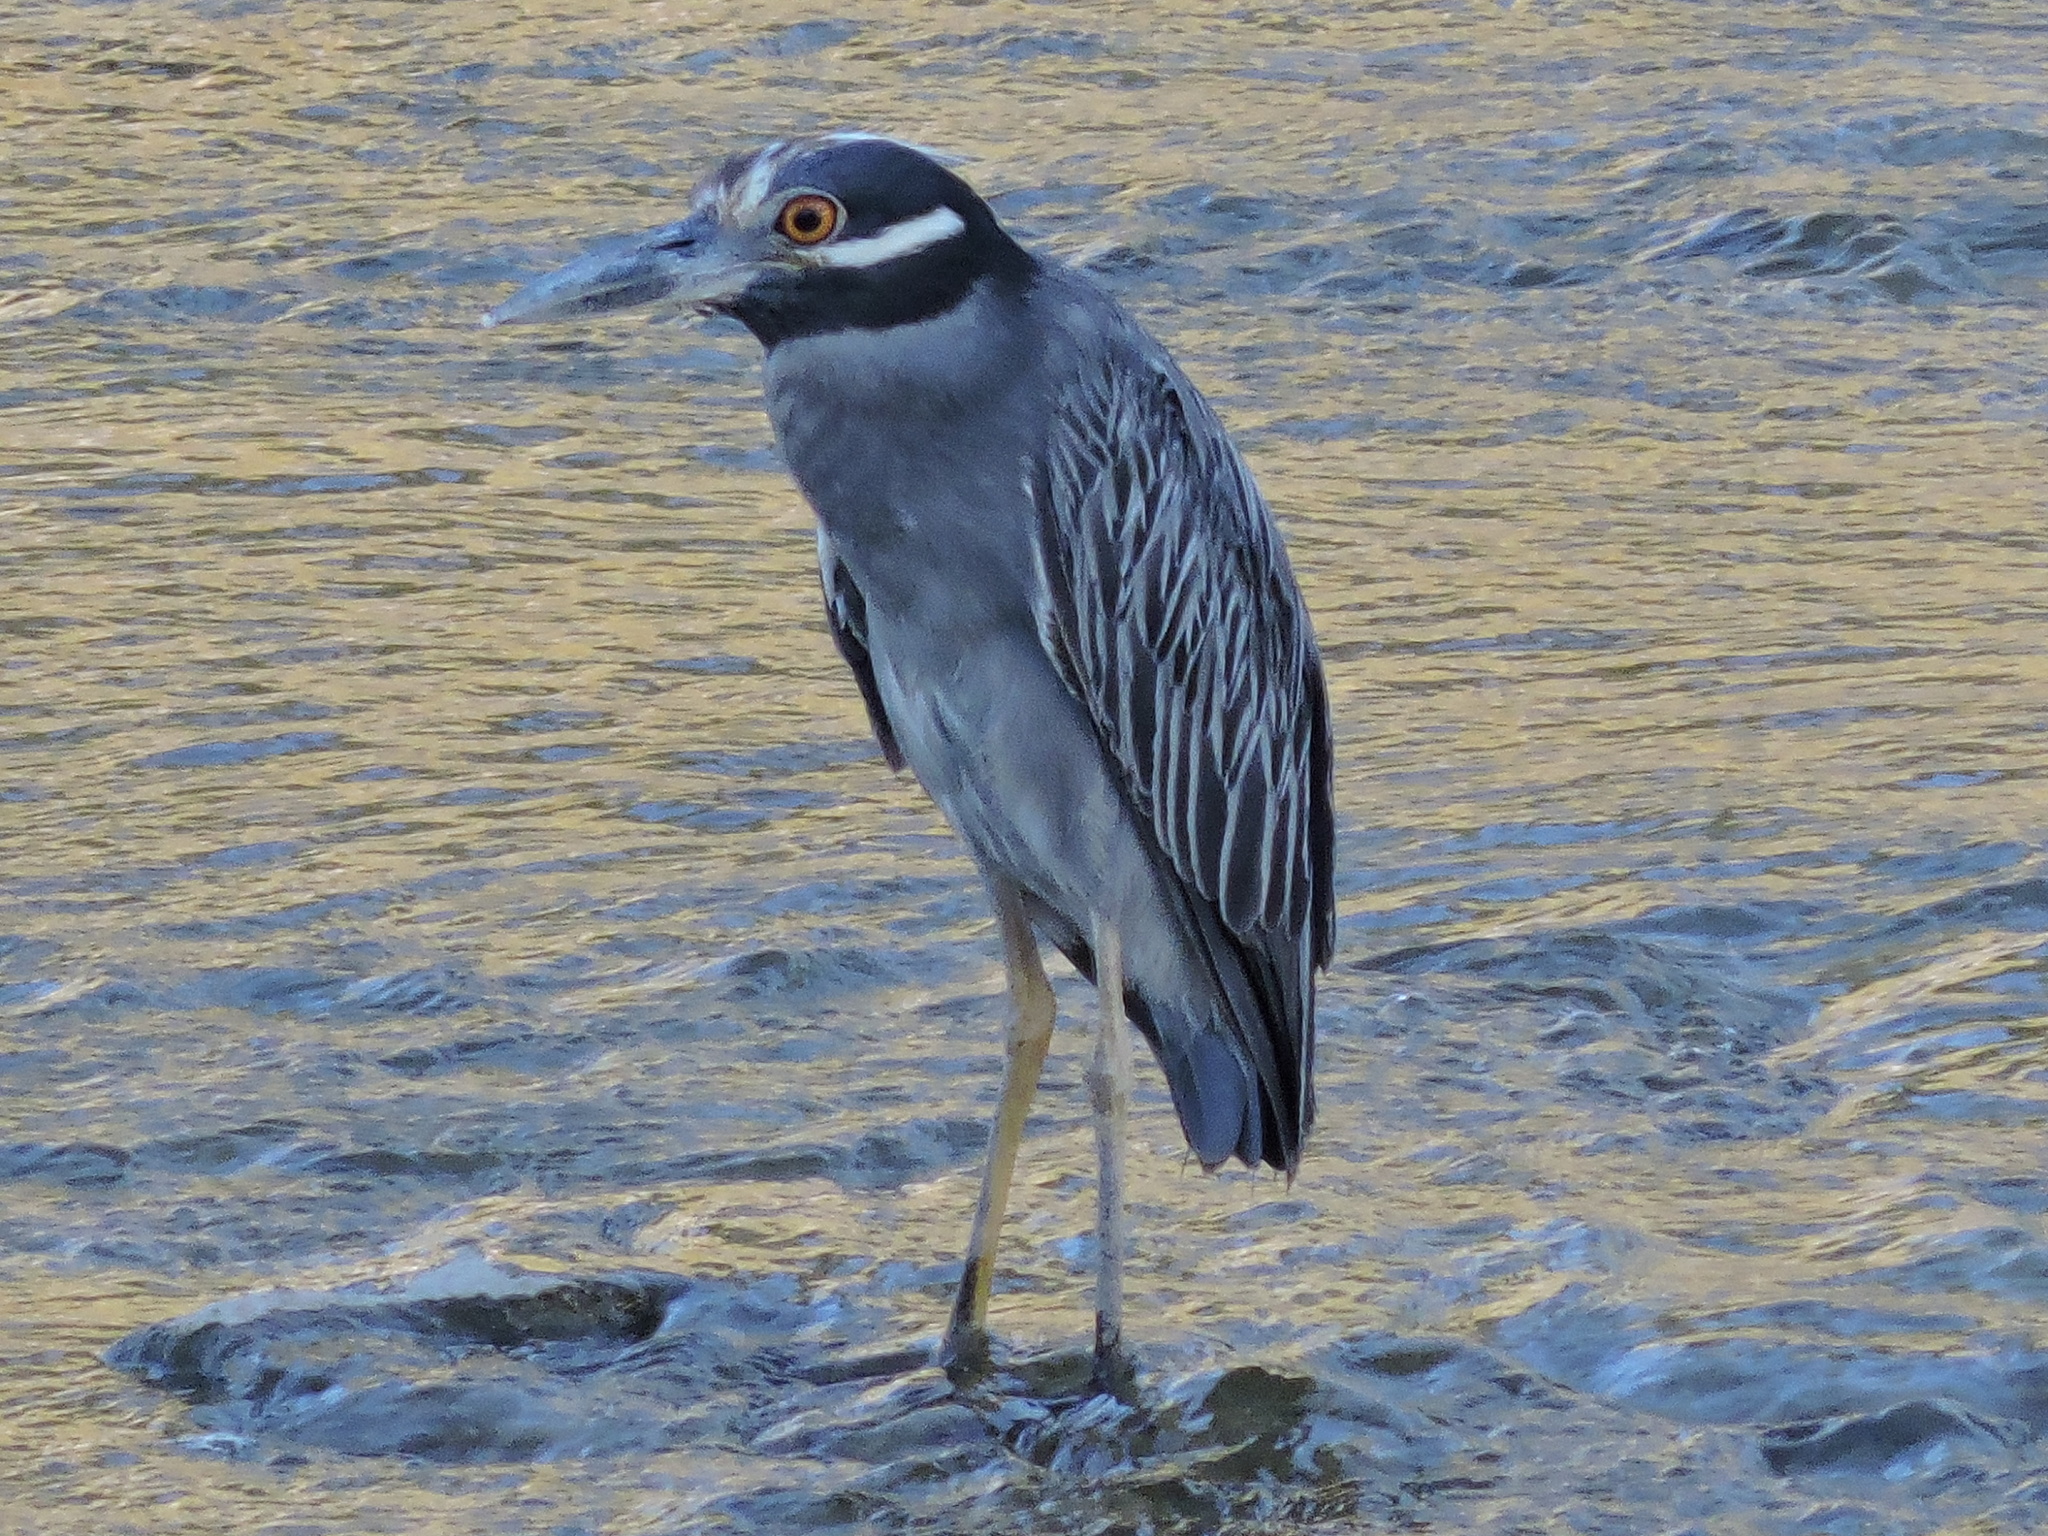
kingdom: Animalia
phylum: Chordata
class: Aves
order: Pelecaniformes
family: Ardeidae
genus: Nyctanassa
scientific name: Nyctanassa violacea
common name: Yellow-crowned night heron
